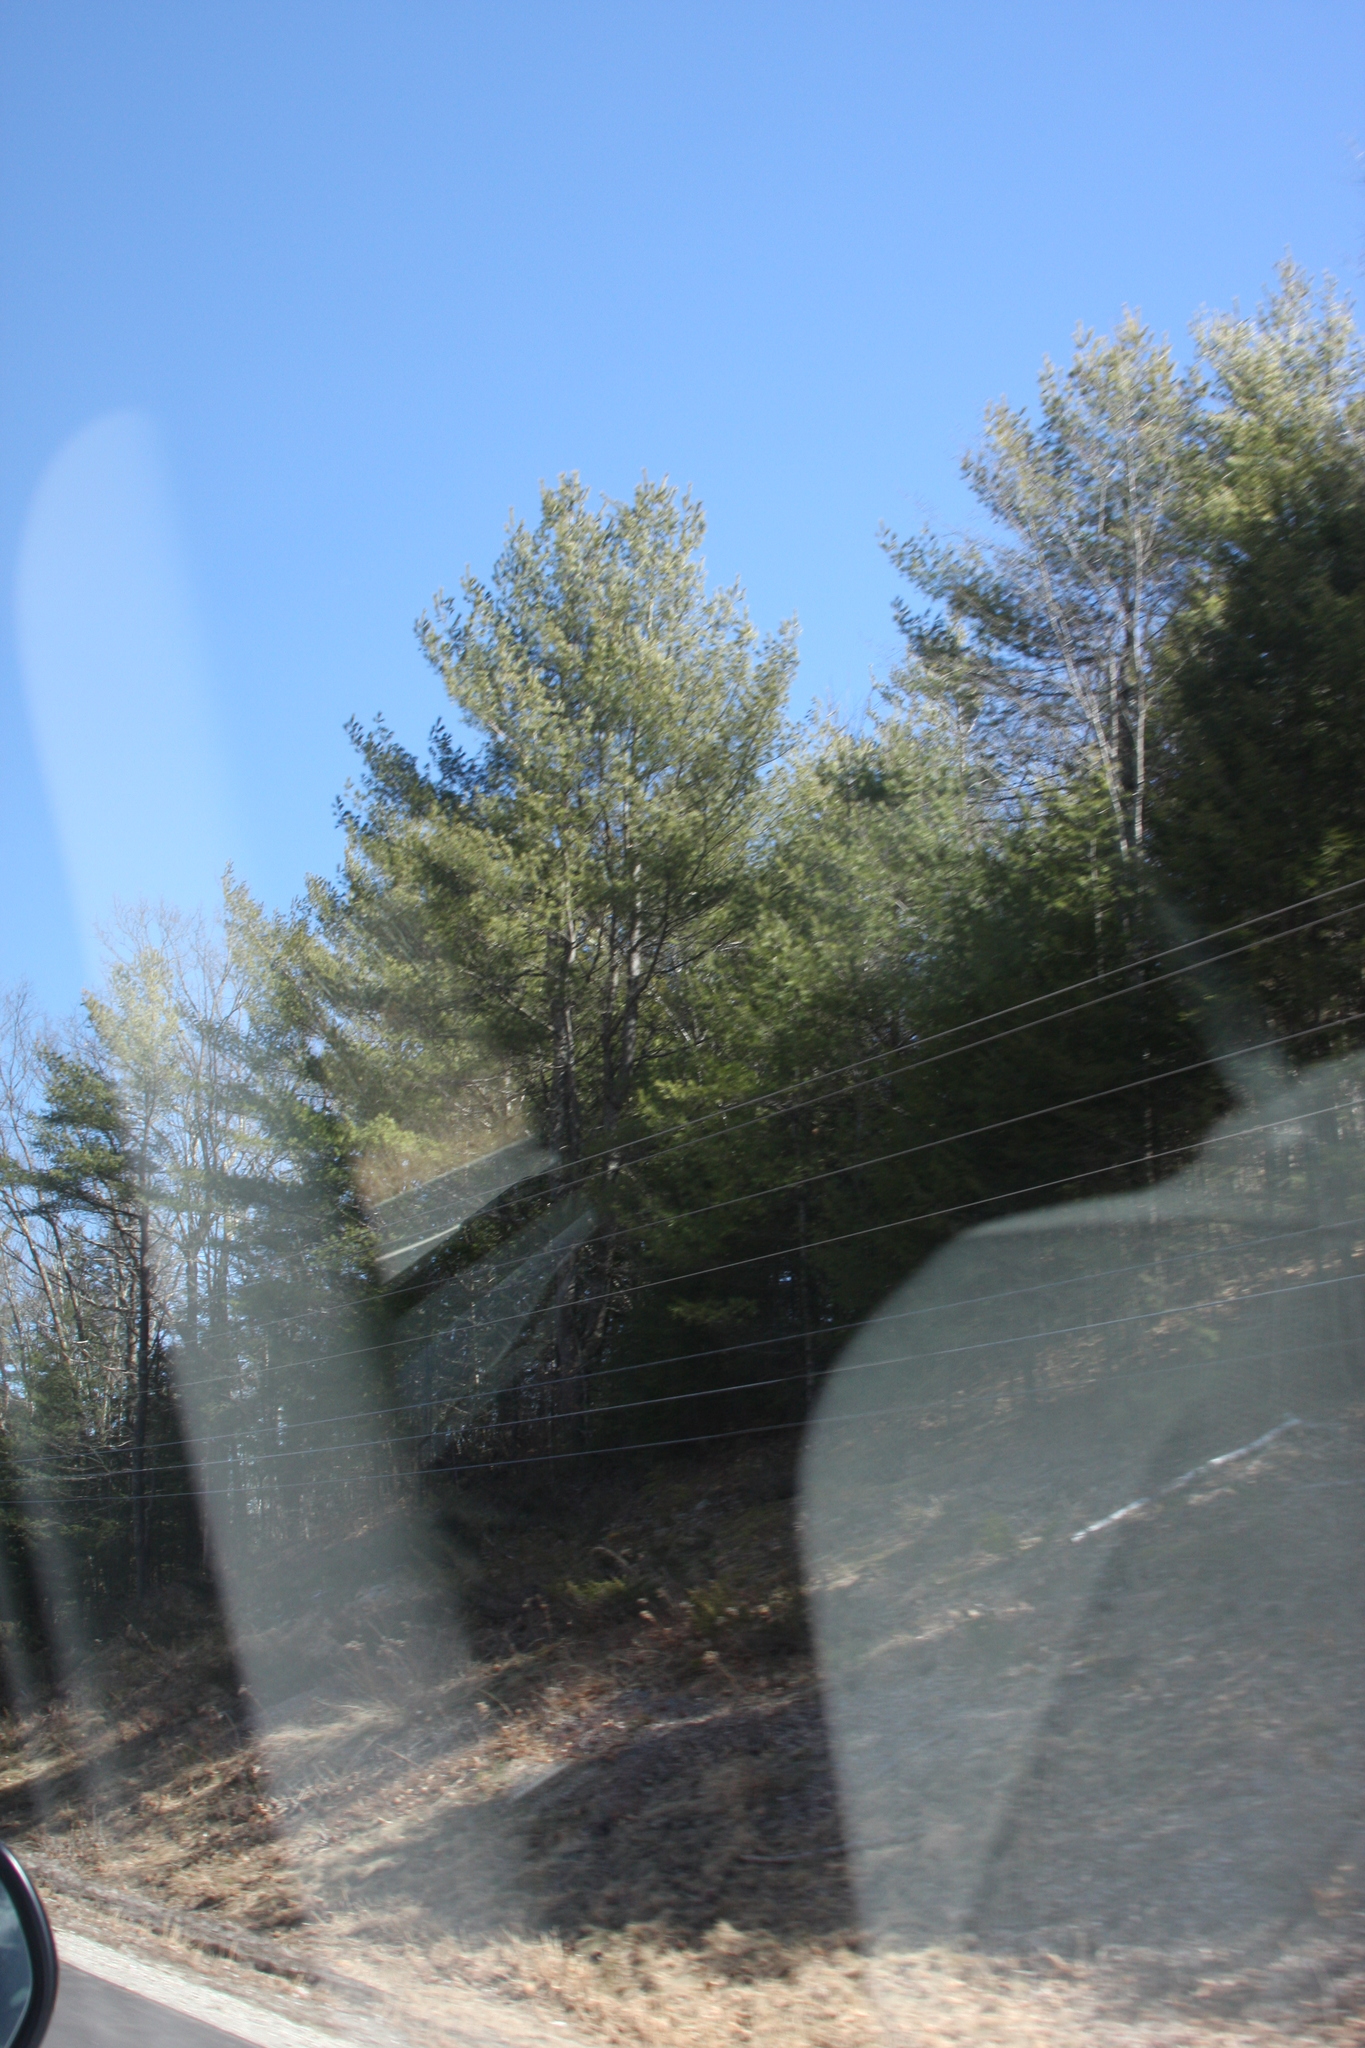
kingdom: Plantae
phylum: Tracheophyta
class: Pinopsida
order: Pinales
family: Pinaceae
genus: Pinus
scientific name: Pinus strobus
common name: Weymouth pine
